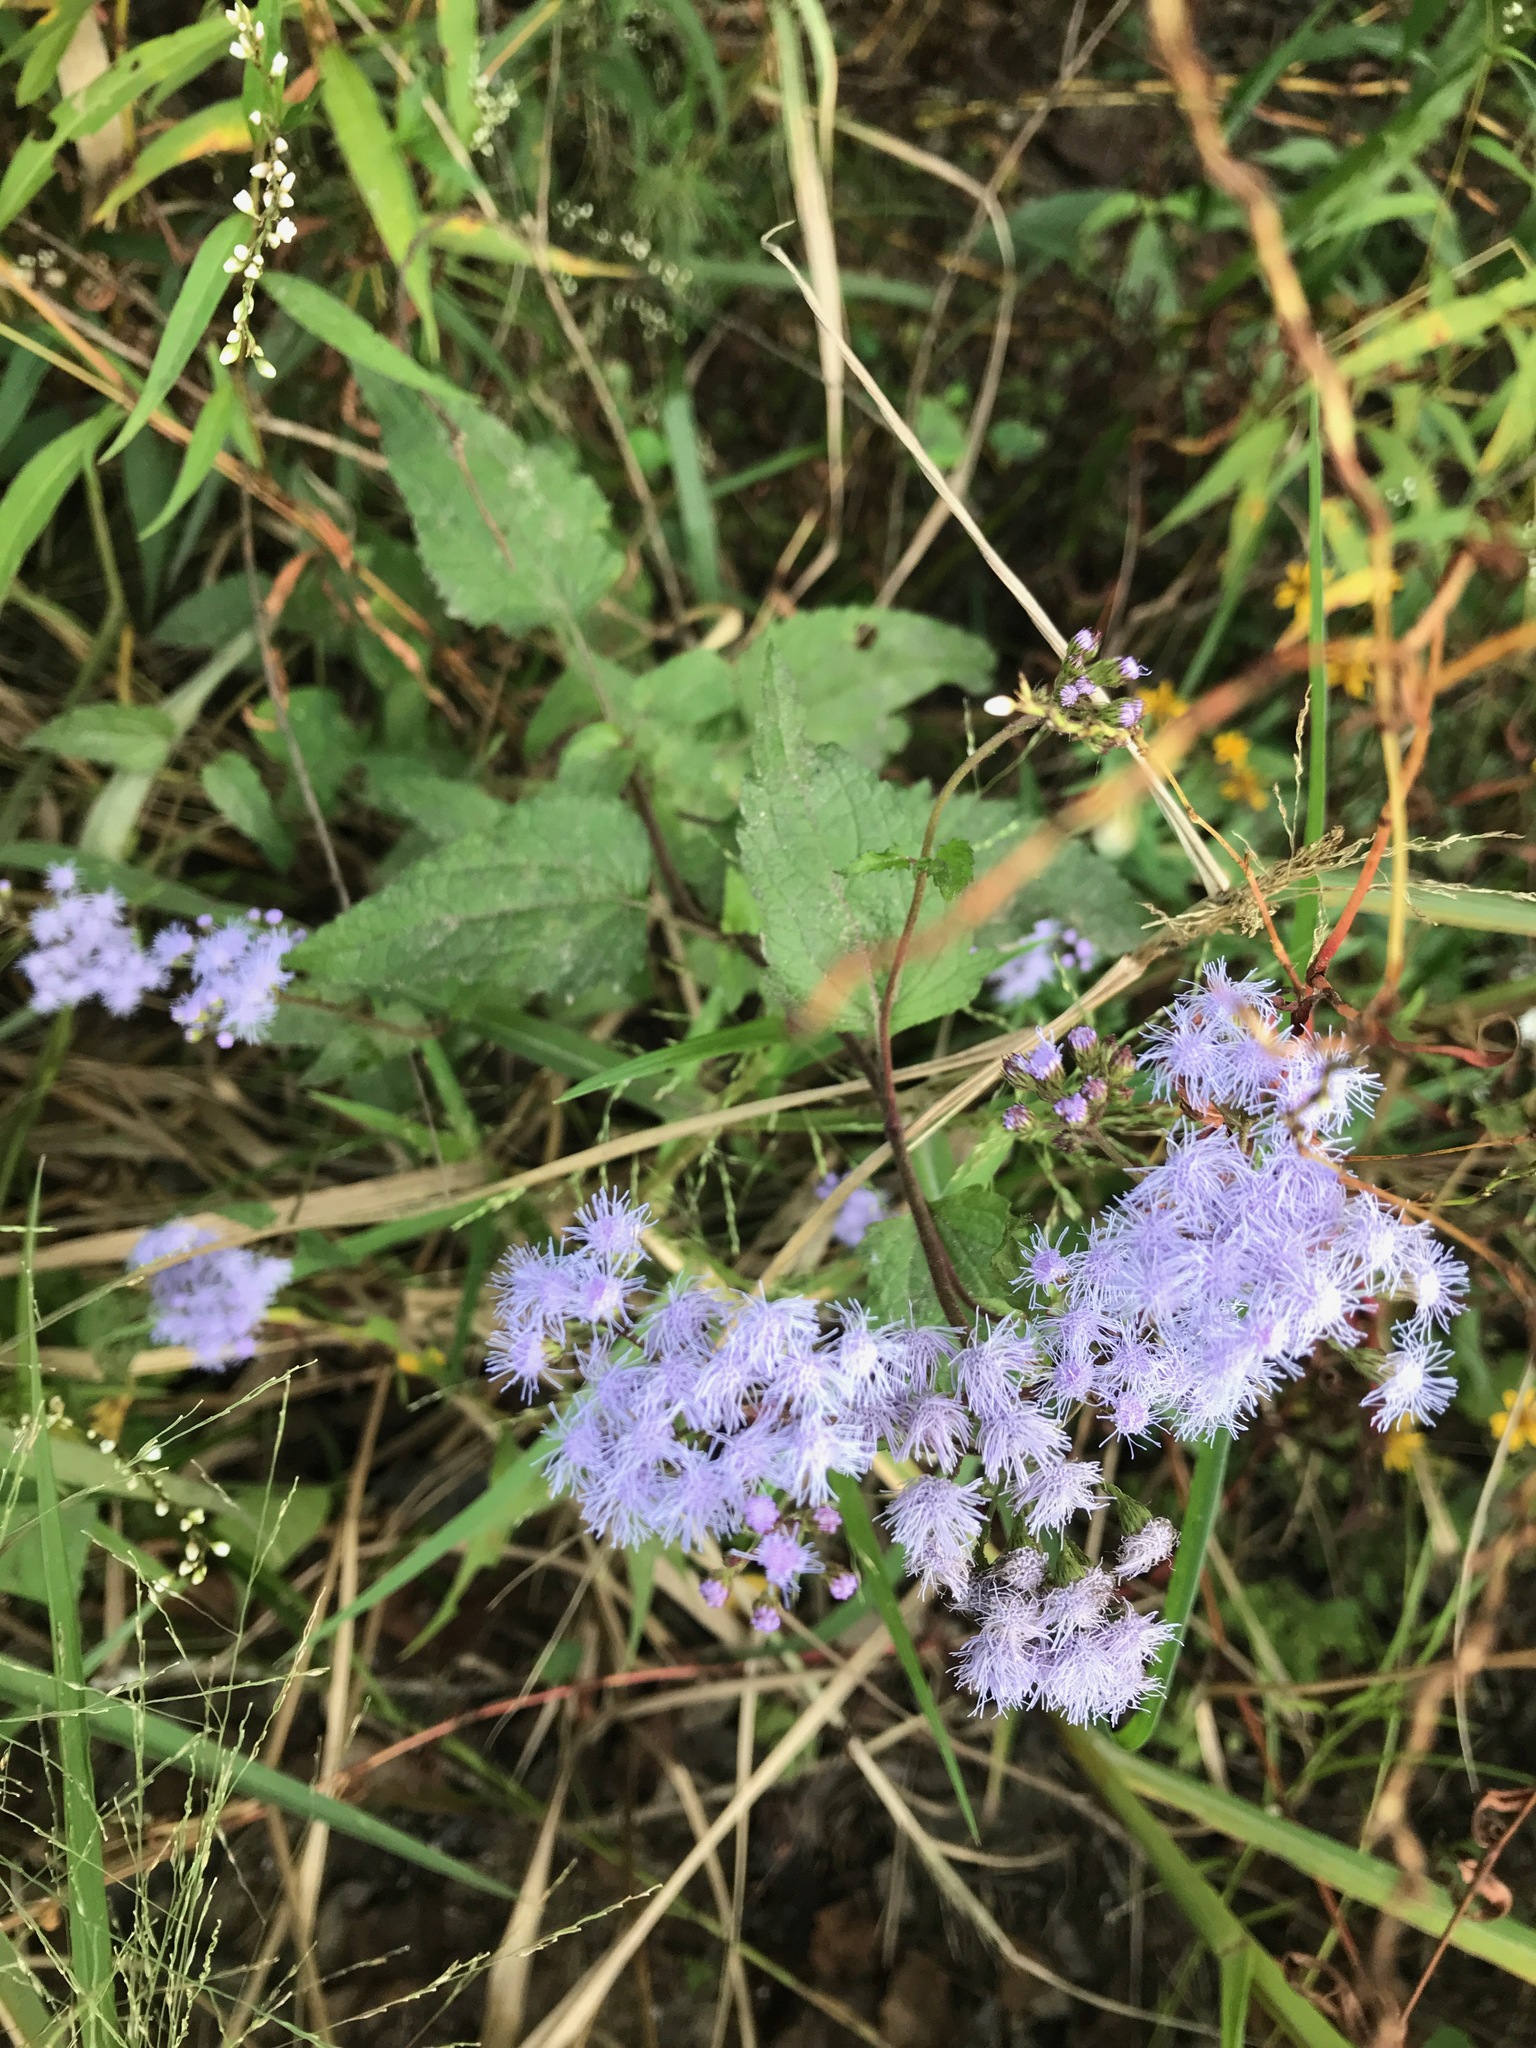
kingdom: Plantae
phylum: Tracheophyta
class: Magnoliopsida
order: Asterales
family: Asteraceae
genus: Conoclinium
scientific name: Conoclinium coelestinum
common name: Blue mistflower
